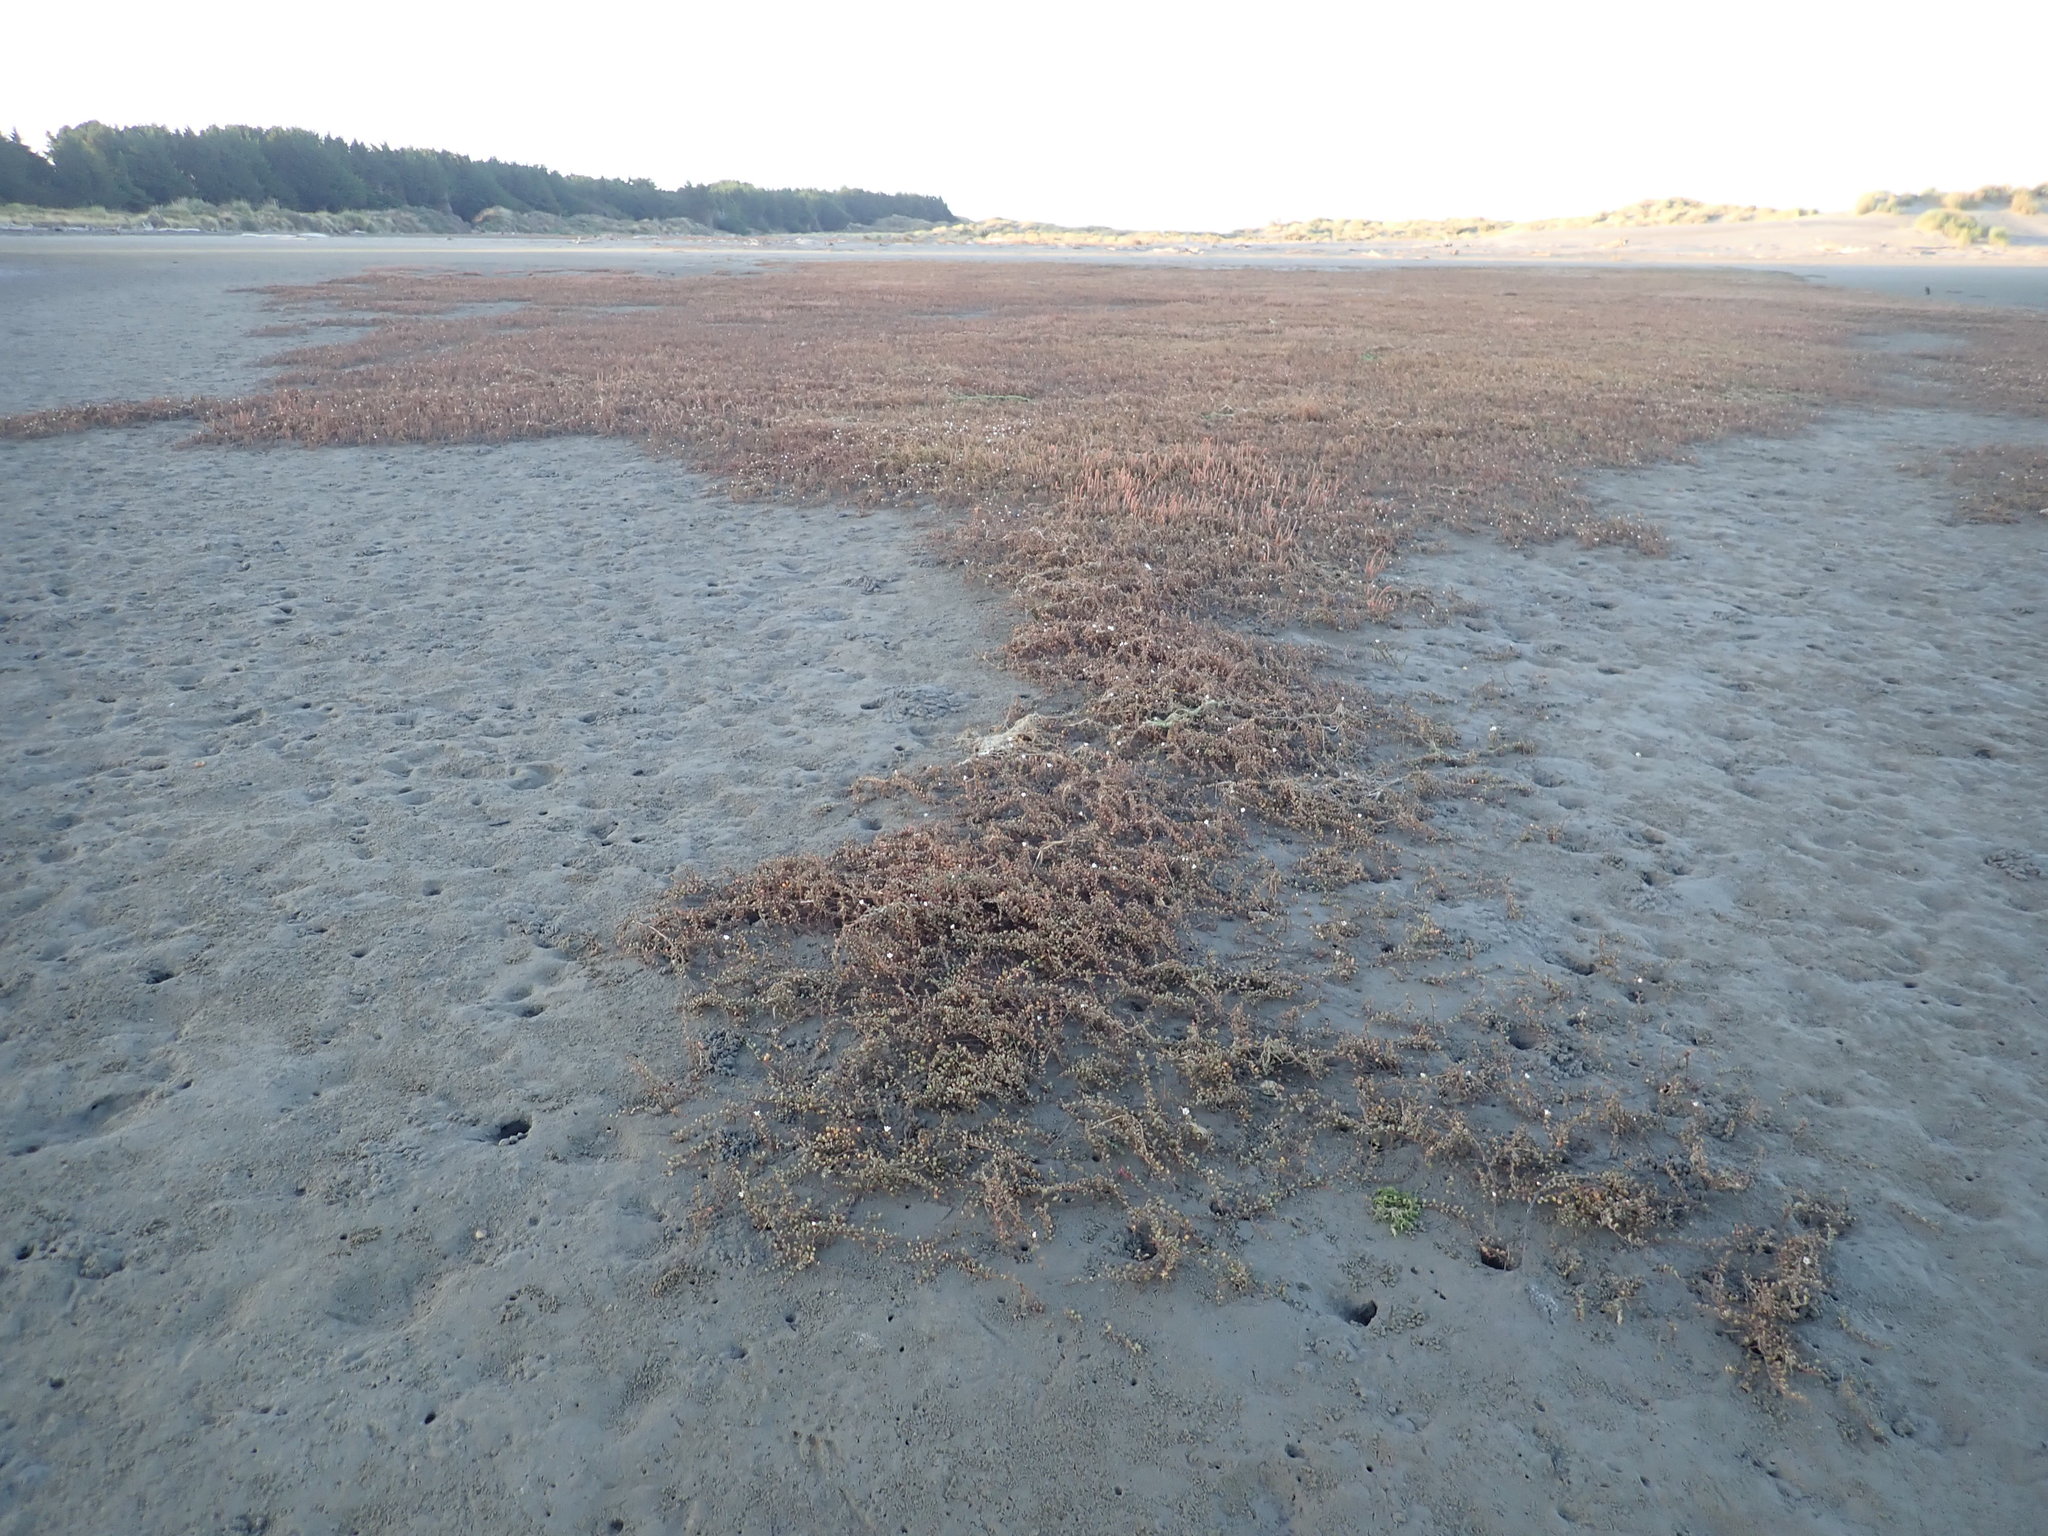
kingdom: Plantae
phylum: Tracheophyta
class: Magnoliopsida
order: Ericales
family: Primulaceae
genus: Samolus
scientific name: Samolus repens
